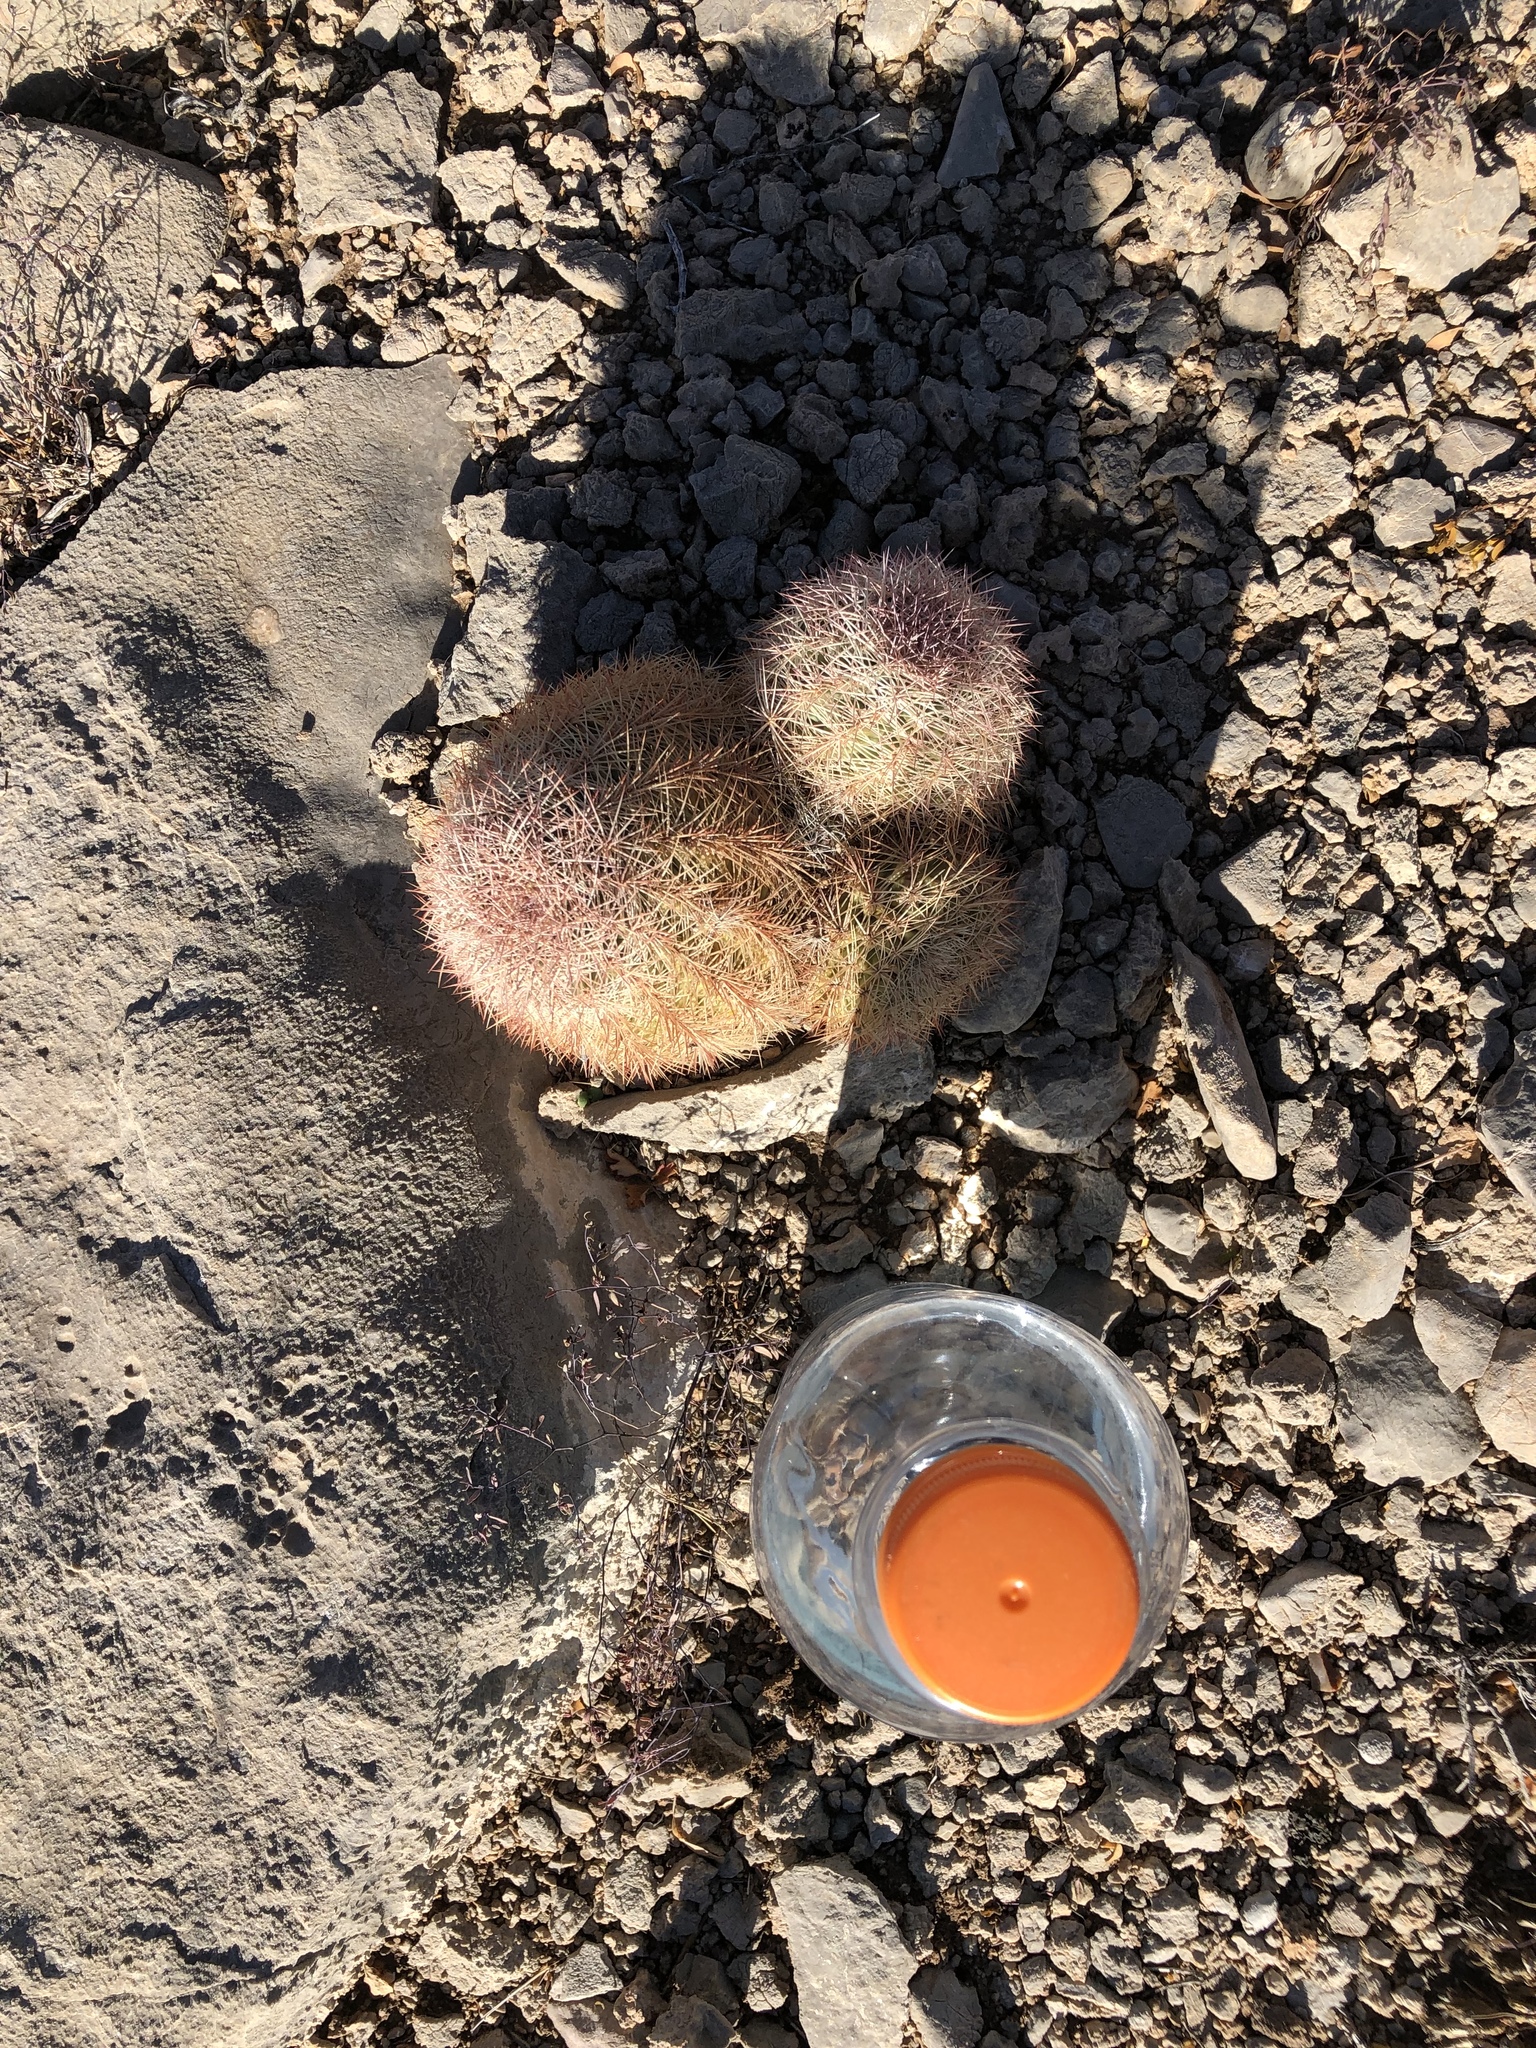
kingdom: Plantae
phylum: Tracheophyta
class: Magnoliopsida
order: Caryophyllales
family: Cactaceae
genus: Echinocereus
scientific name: Echinocereus dasyacanthus
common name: Spiny hedgehog cactus
